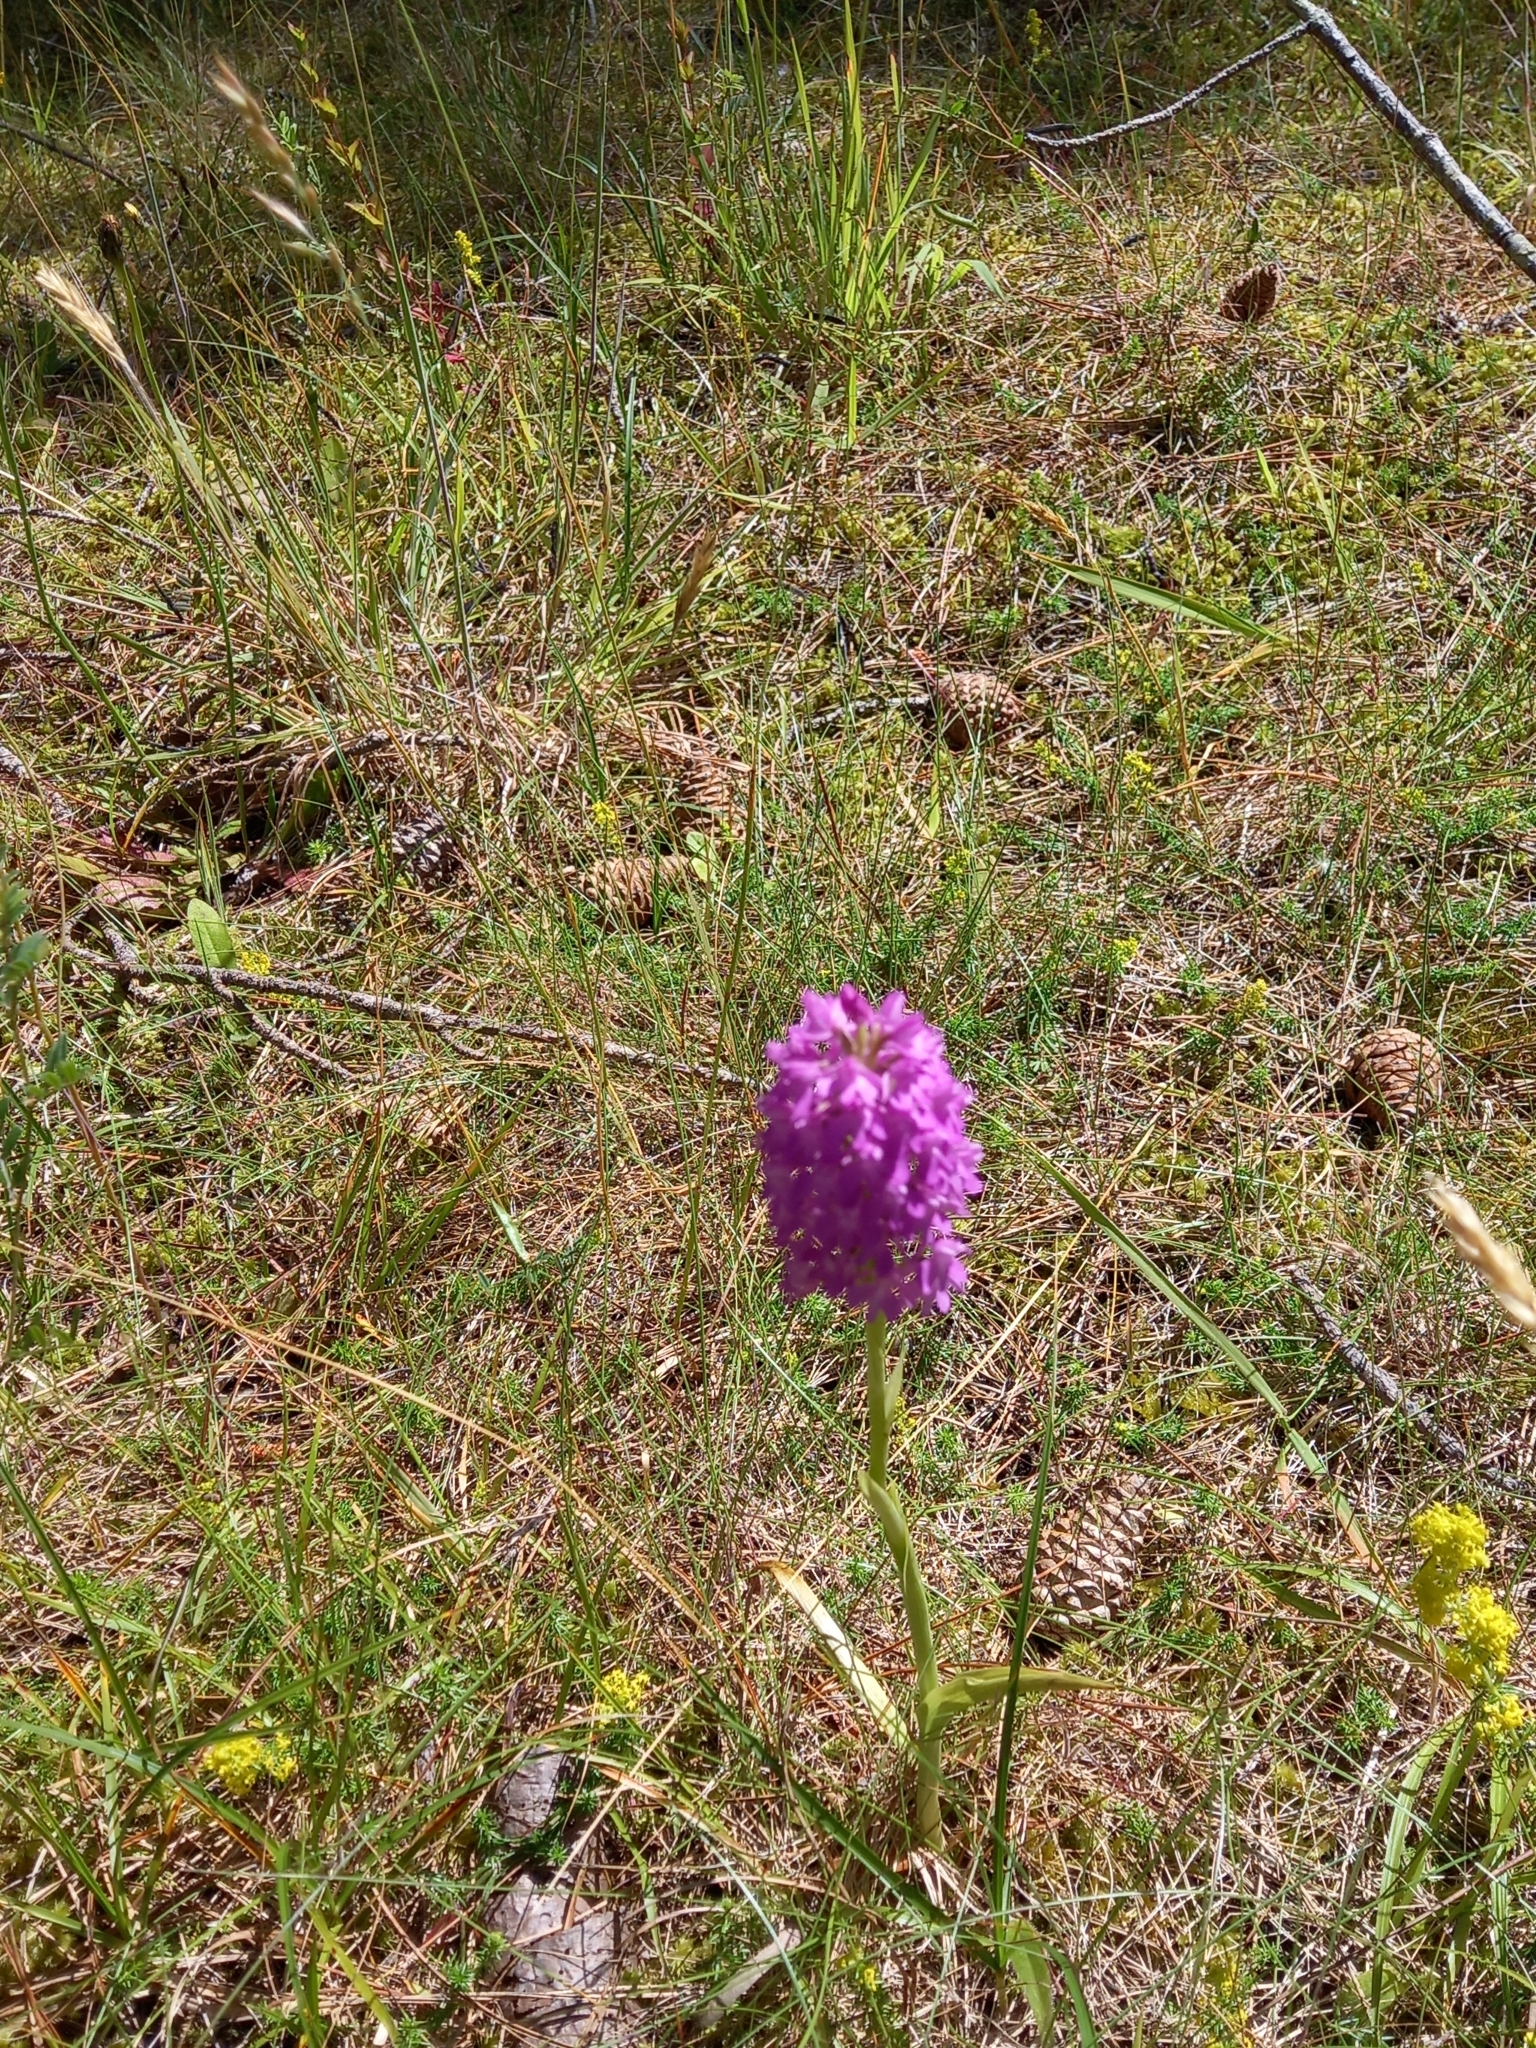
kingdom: Plantae
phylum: Tracheophyta
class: Liliopsida
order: Asparagales
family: Orchidaceae
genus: Anacamptis
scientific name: Anacamptis pyramidalis
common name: Pyramidal orchid
